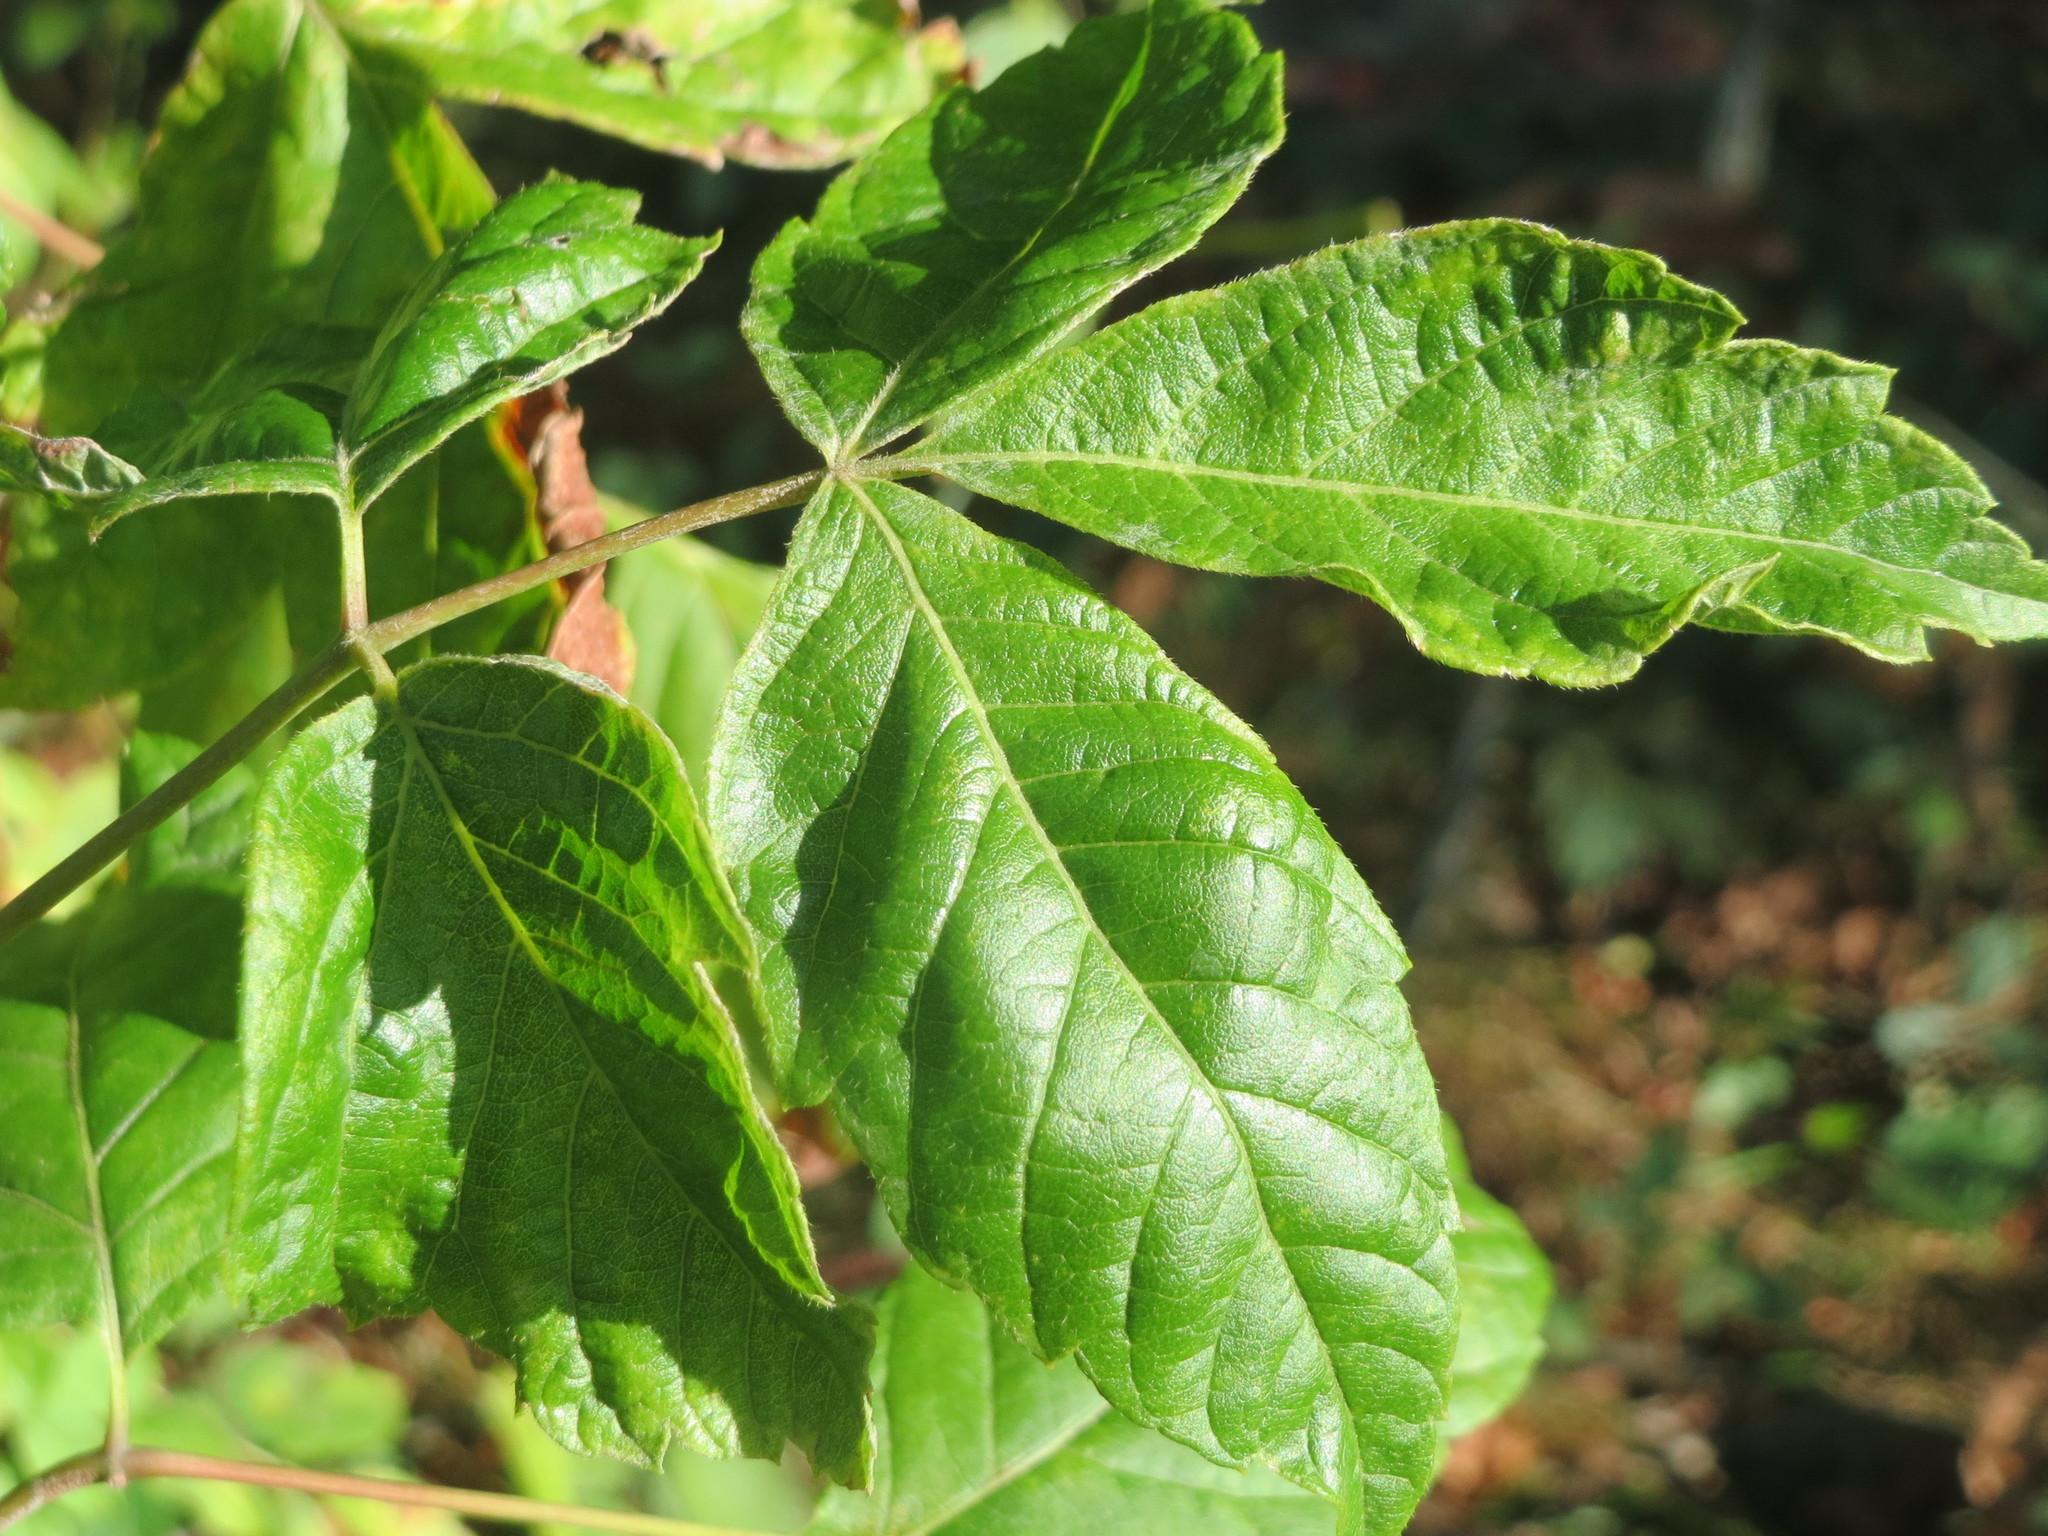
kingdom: Plantae
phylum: Tracheophyta
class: Magnoliopsida
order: Sapindales
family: Sapindaceae
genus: Acer
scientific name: Acer negundo
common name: Ashleaf maple
